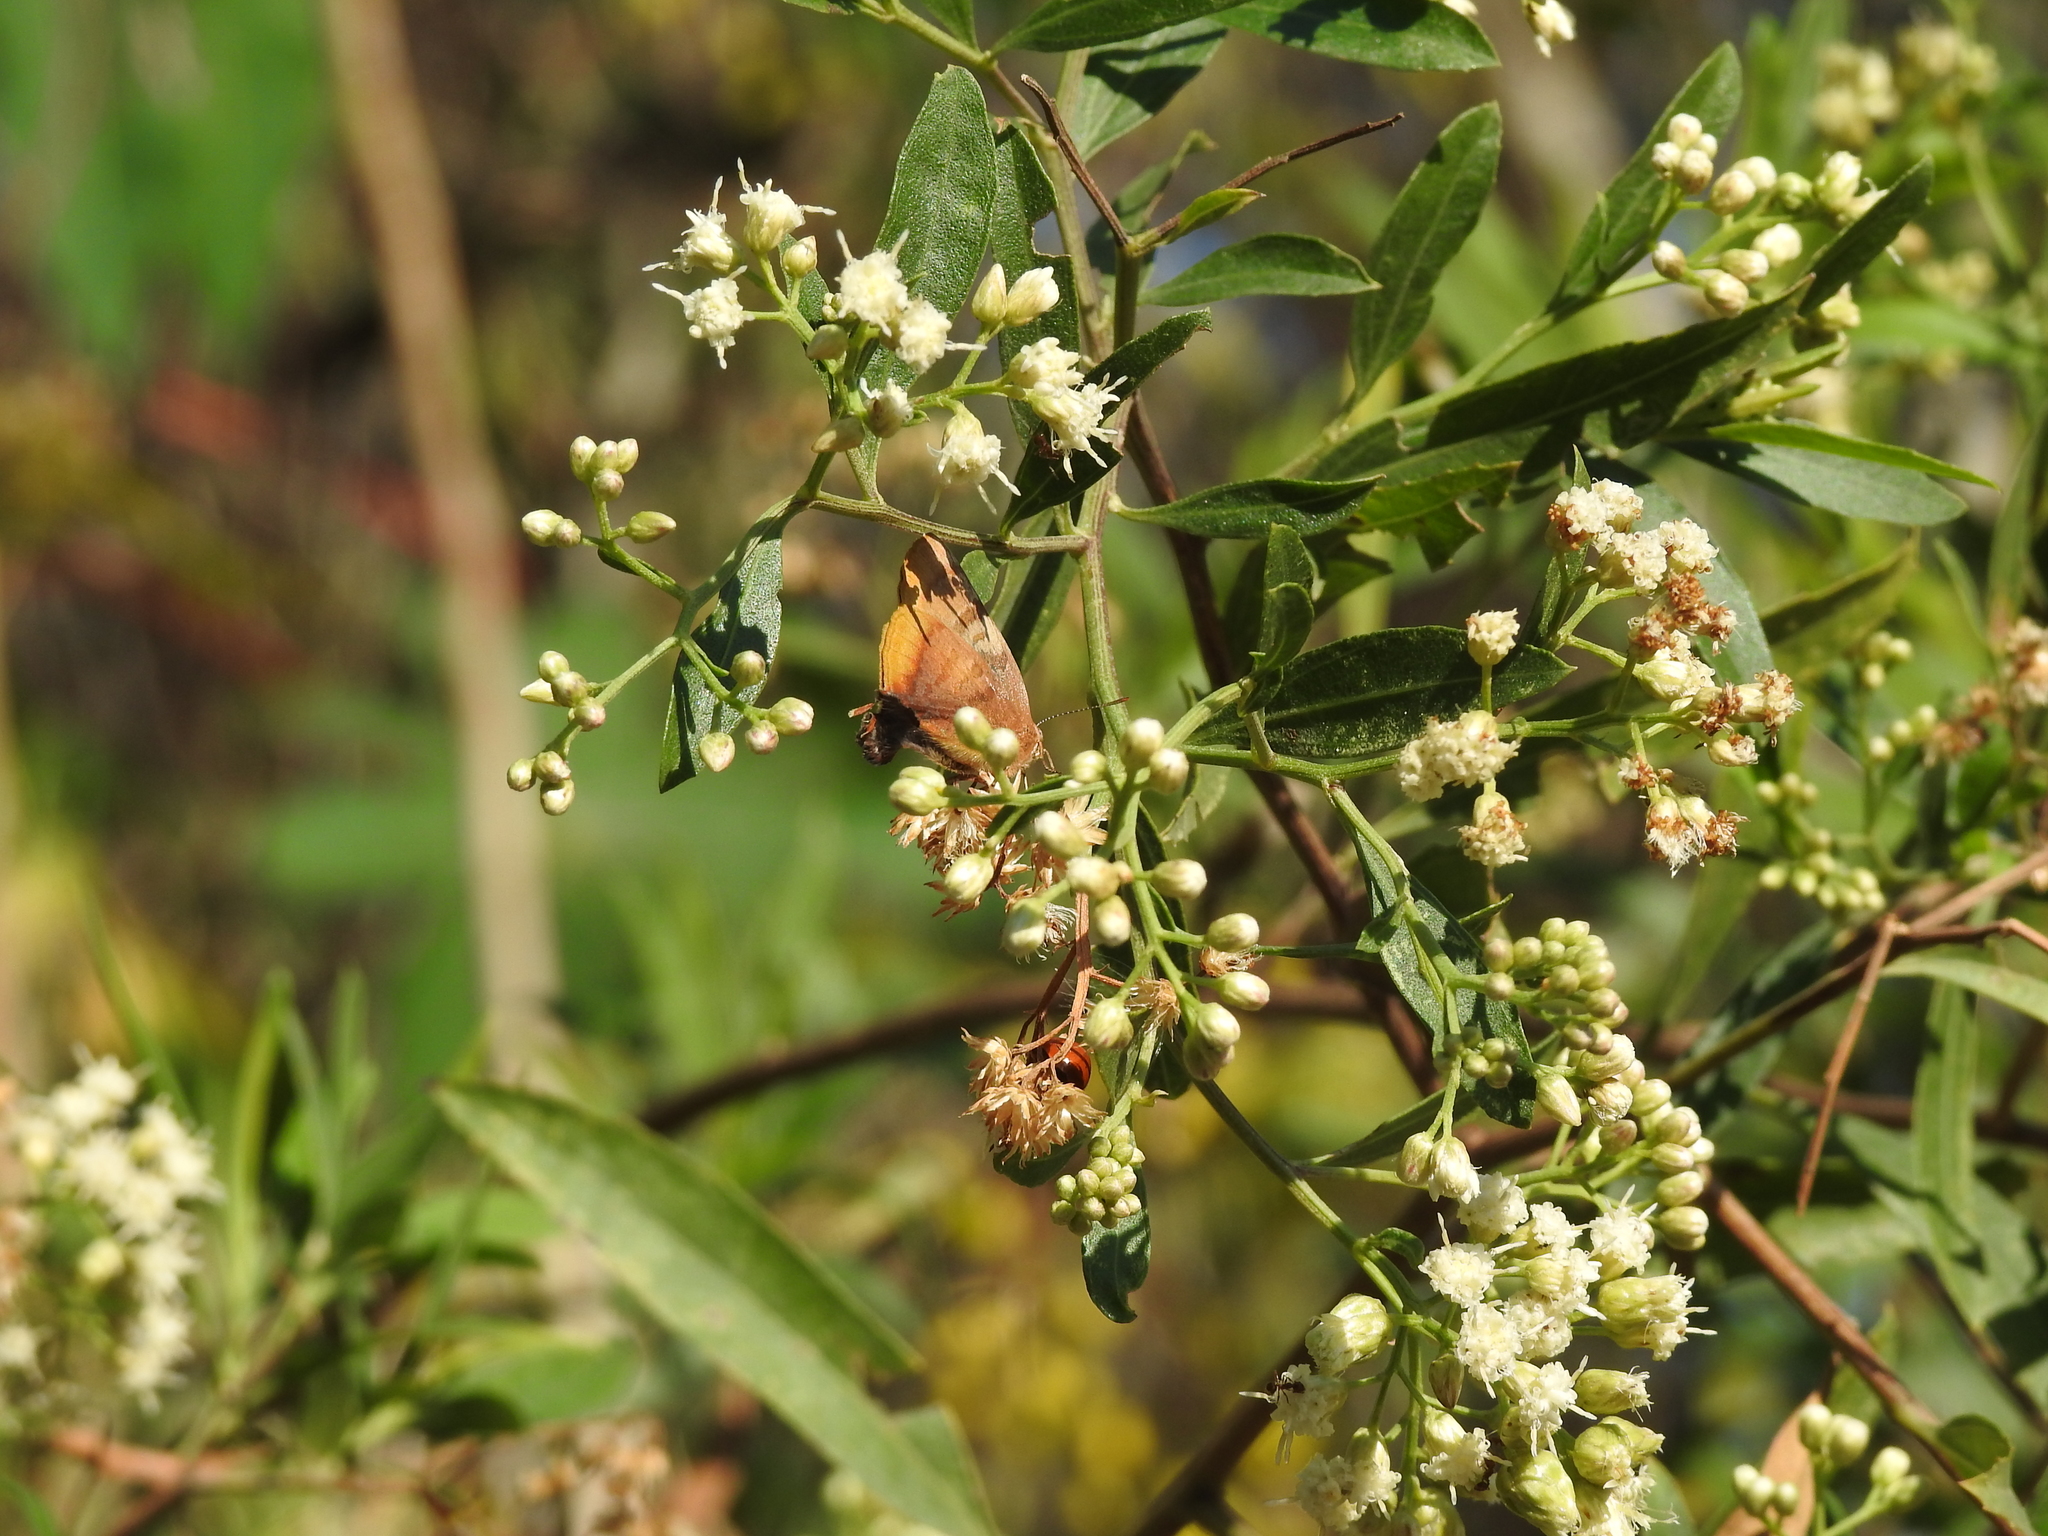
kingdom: Animalia
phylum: Arthropoda
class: Insecta
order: Lepidoptera
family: Lycaenidae
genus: Thecla
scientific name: Thecla marius
